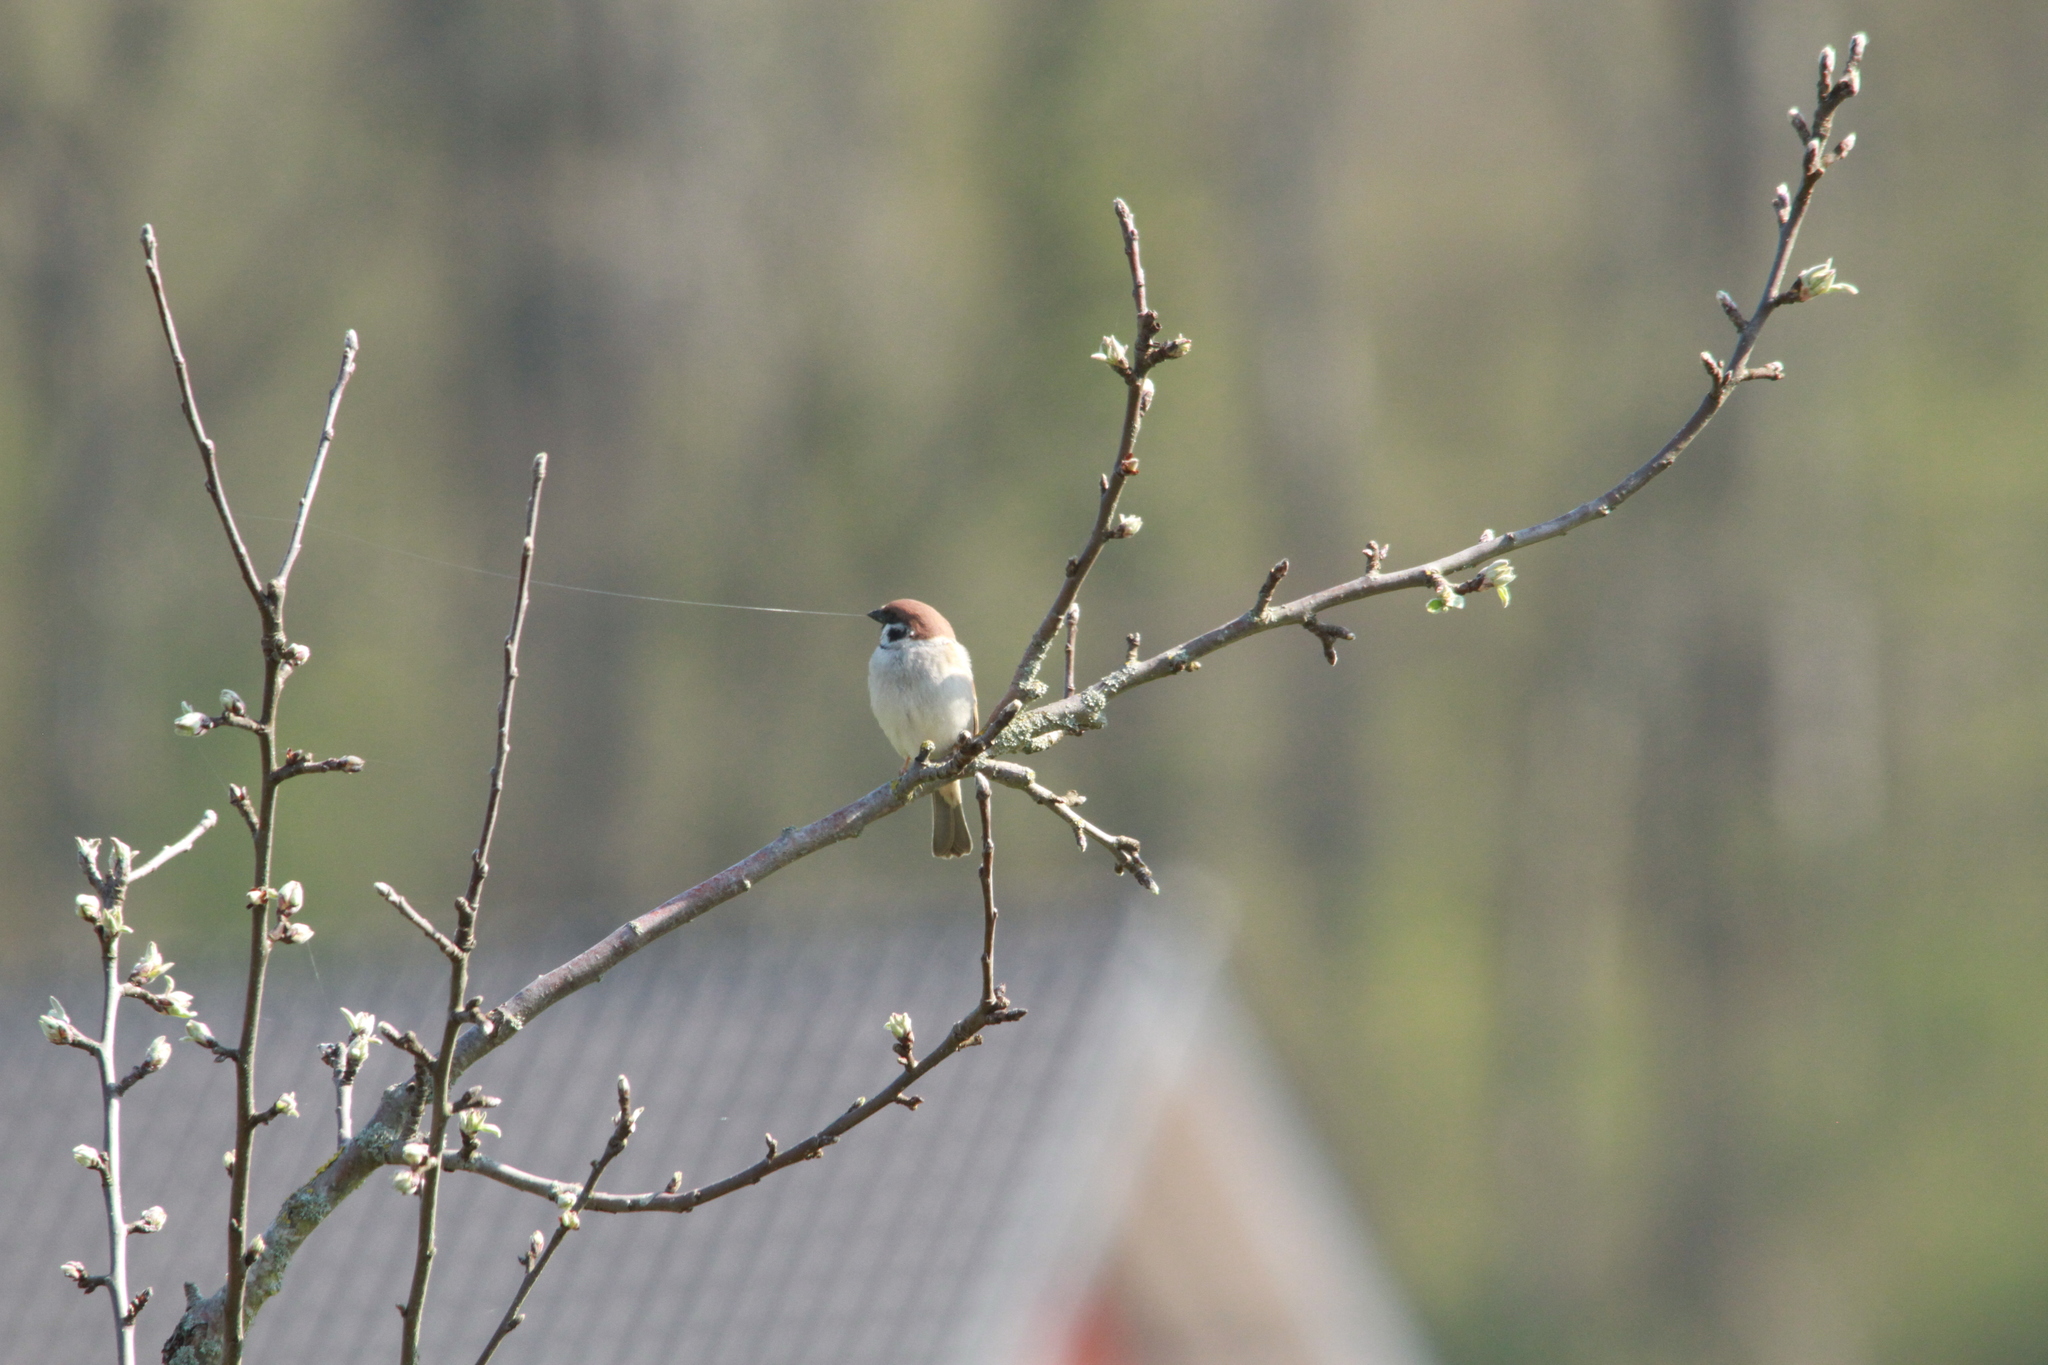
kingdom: Animalia
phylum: Chordata
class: Aves
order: Passeriformes
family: Passeridae
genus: Passer
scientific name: Passer montanus
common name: Eurasian tree sparrow
